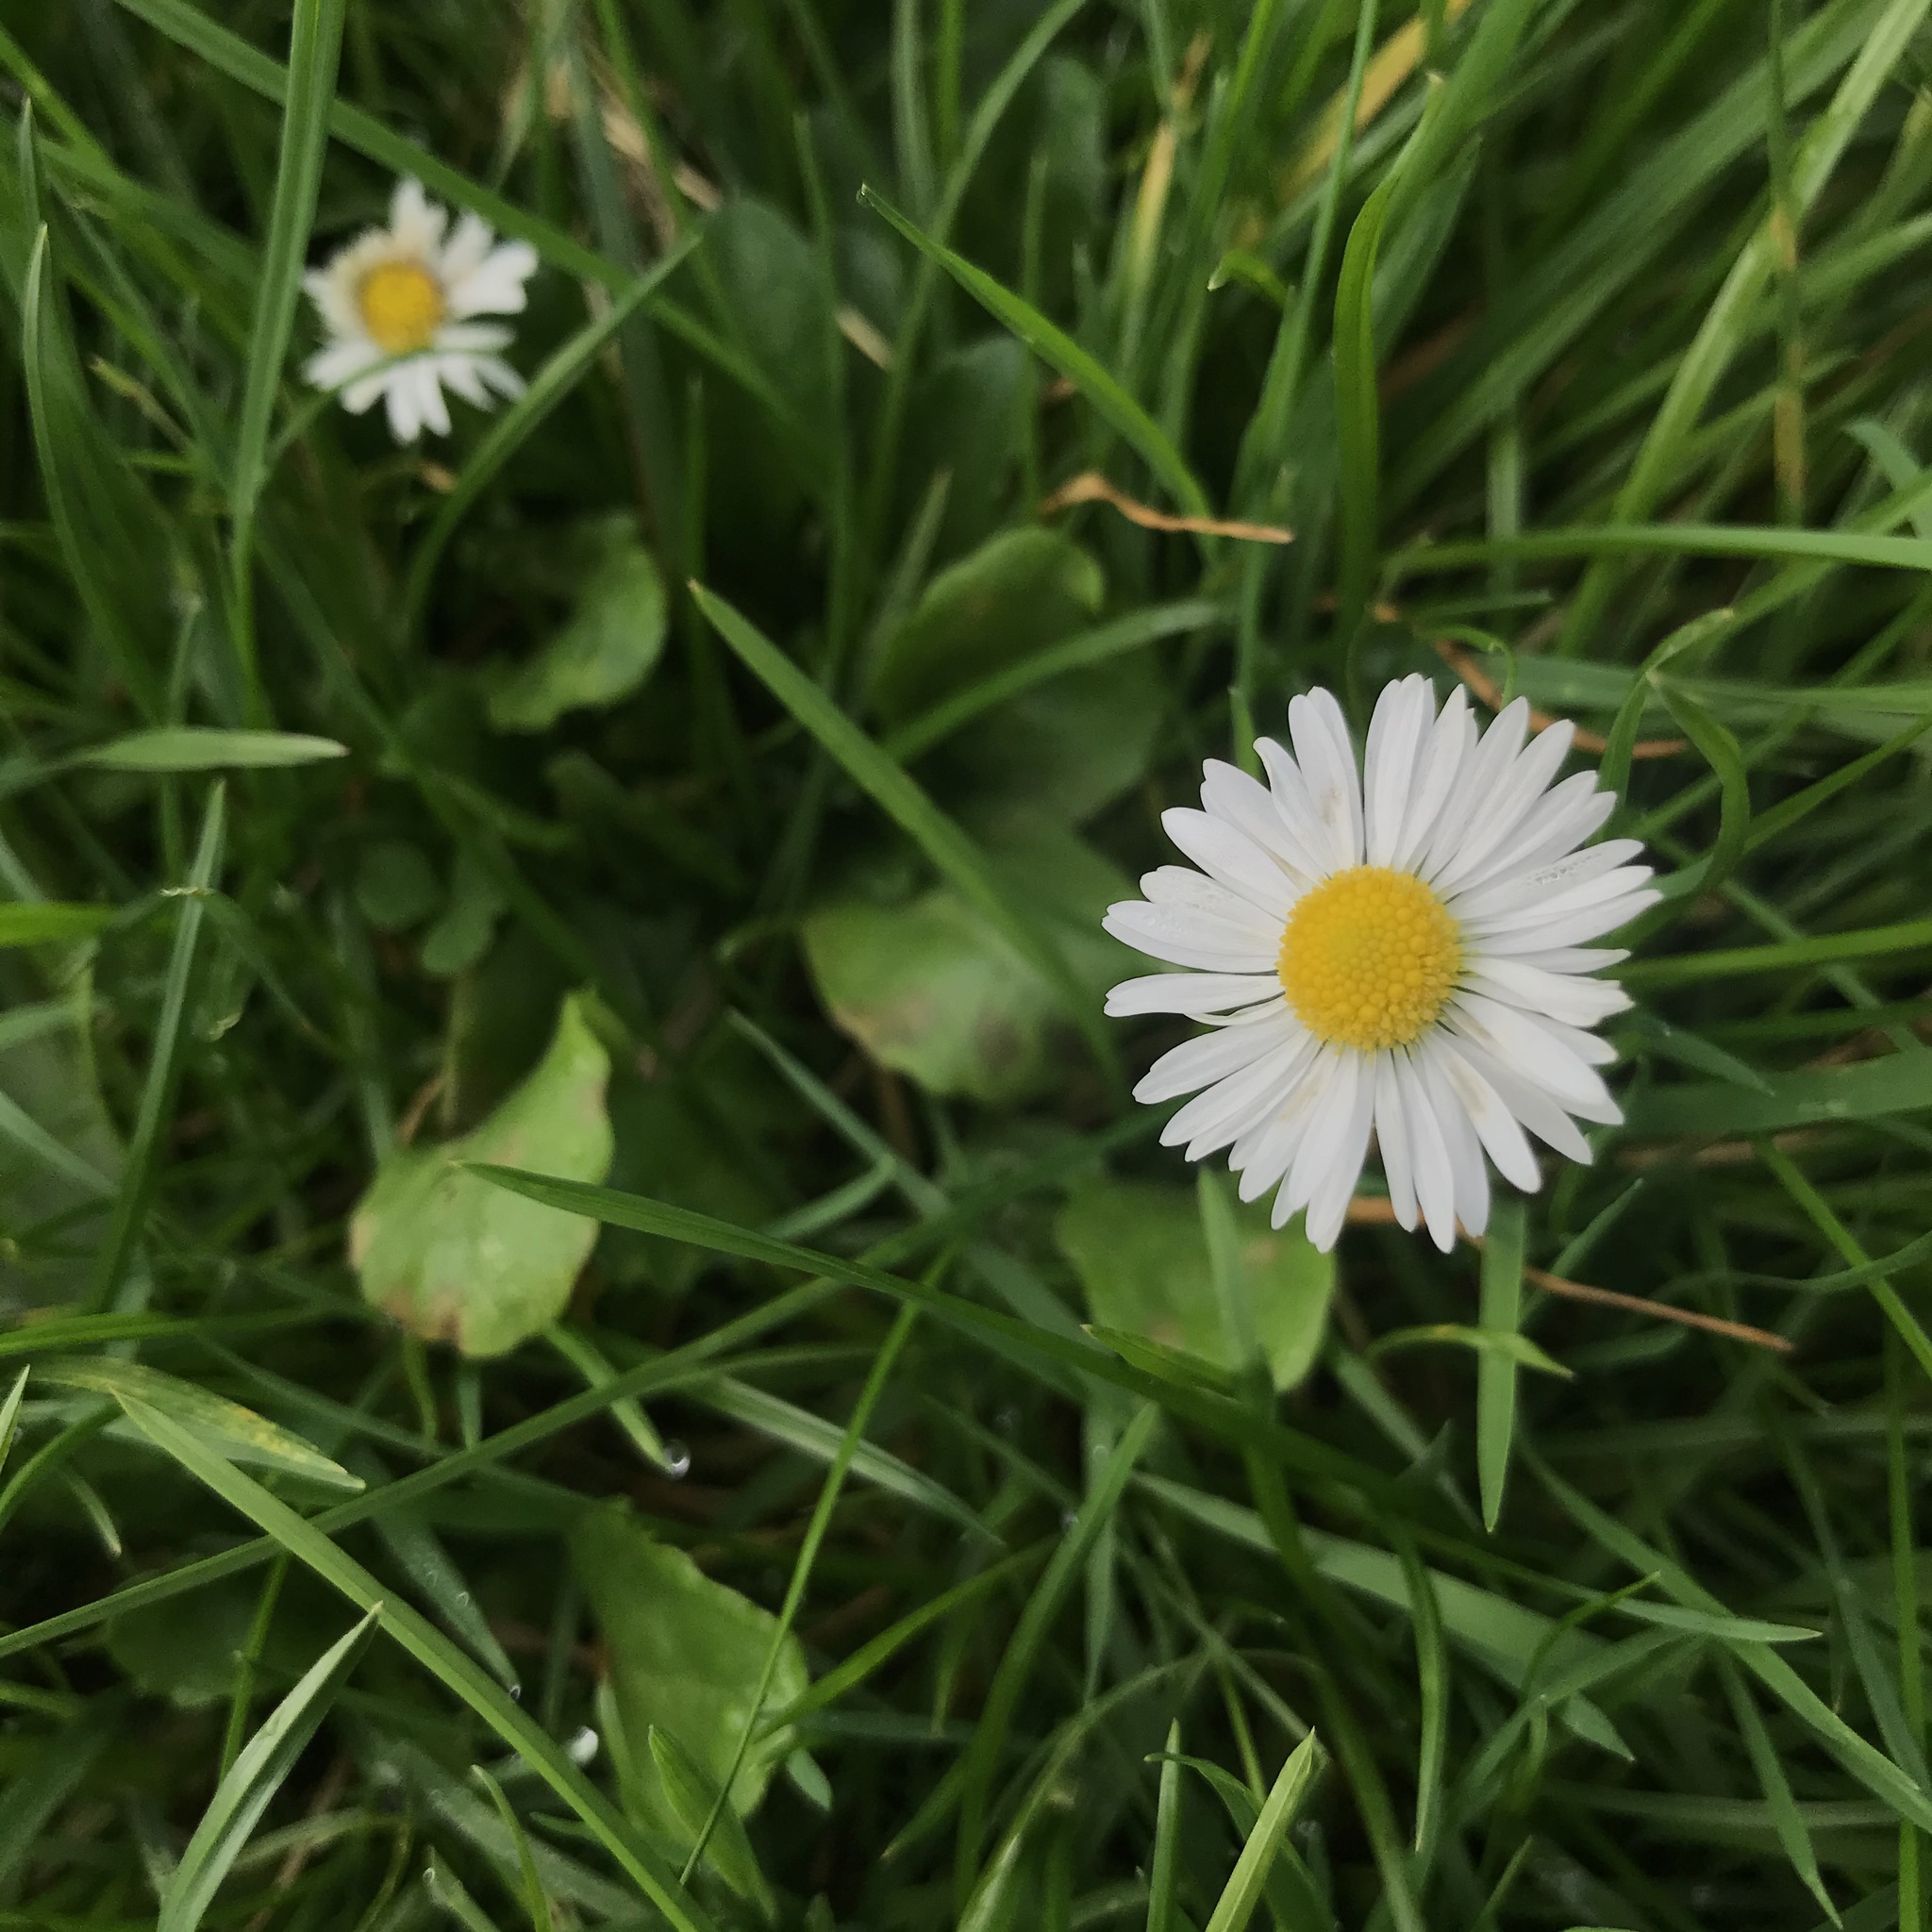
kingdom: Plantae
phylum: Tracheophyta
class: Magnoliopsida
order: Asterales
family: Asteraceae
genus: Bellis
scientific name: Bellis perennis
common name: Lawndaisy
